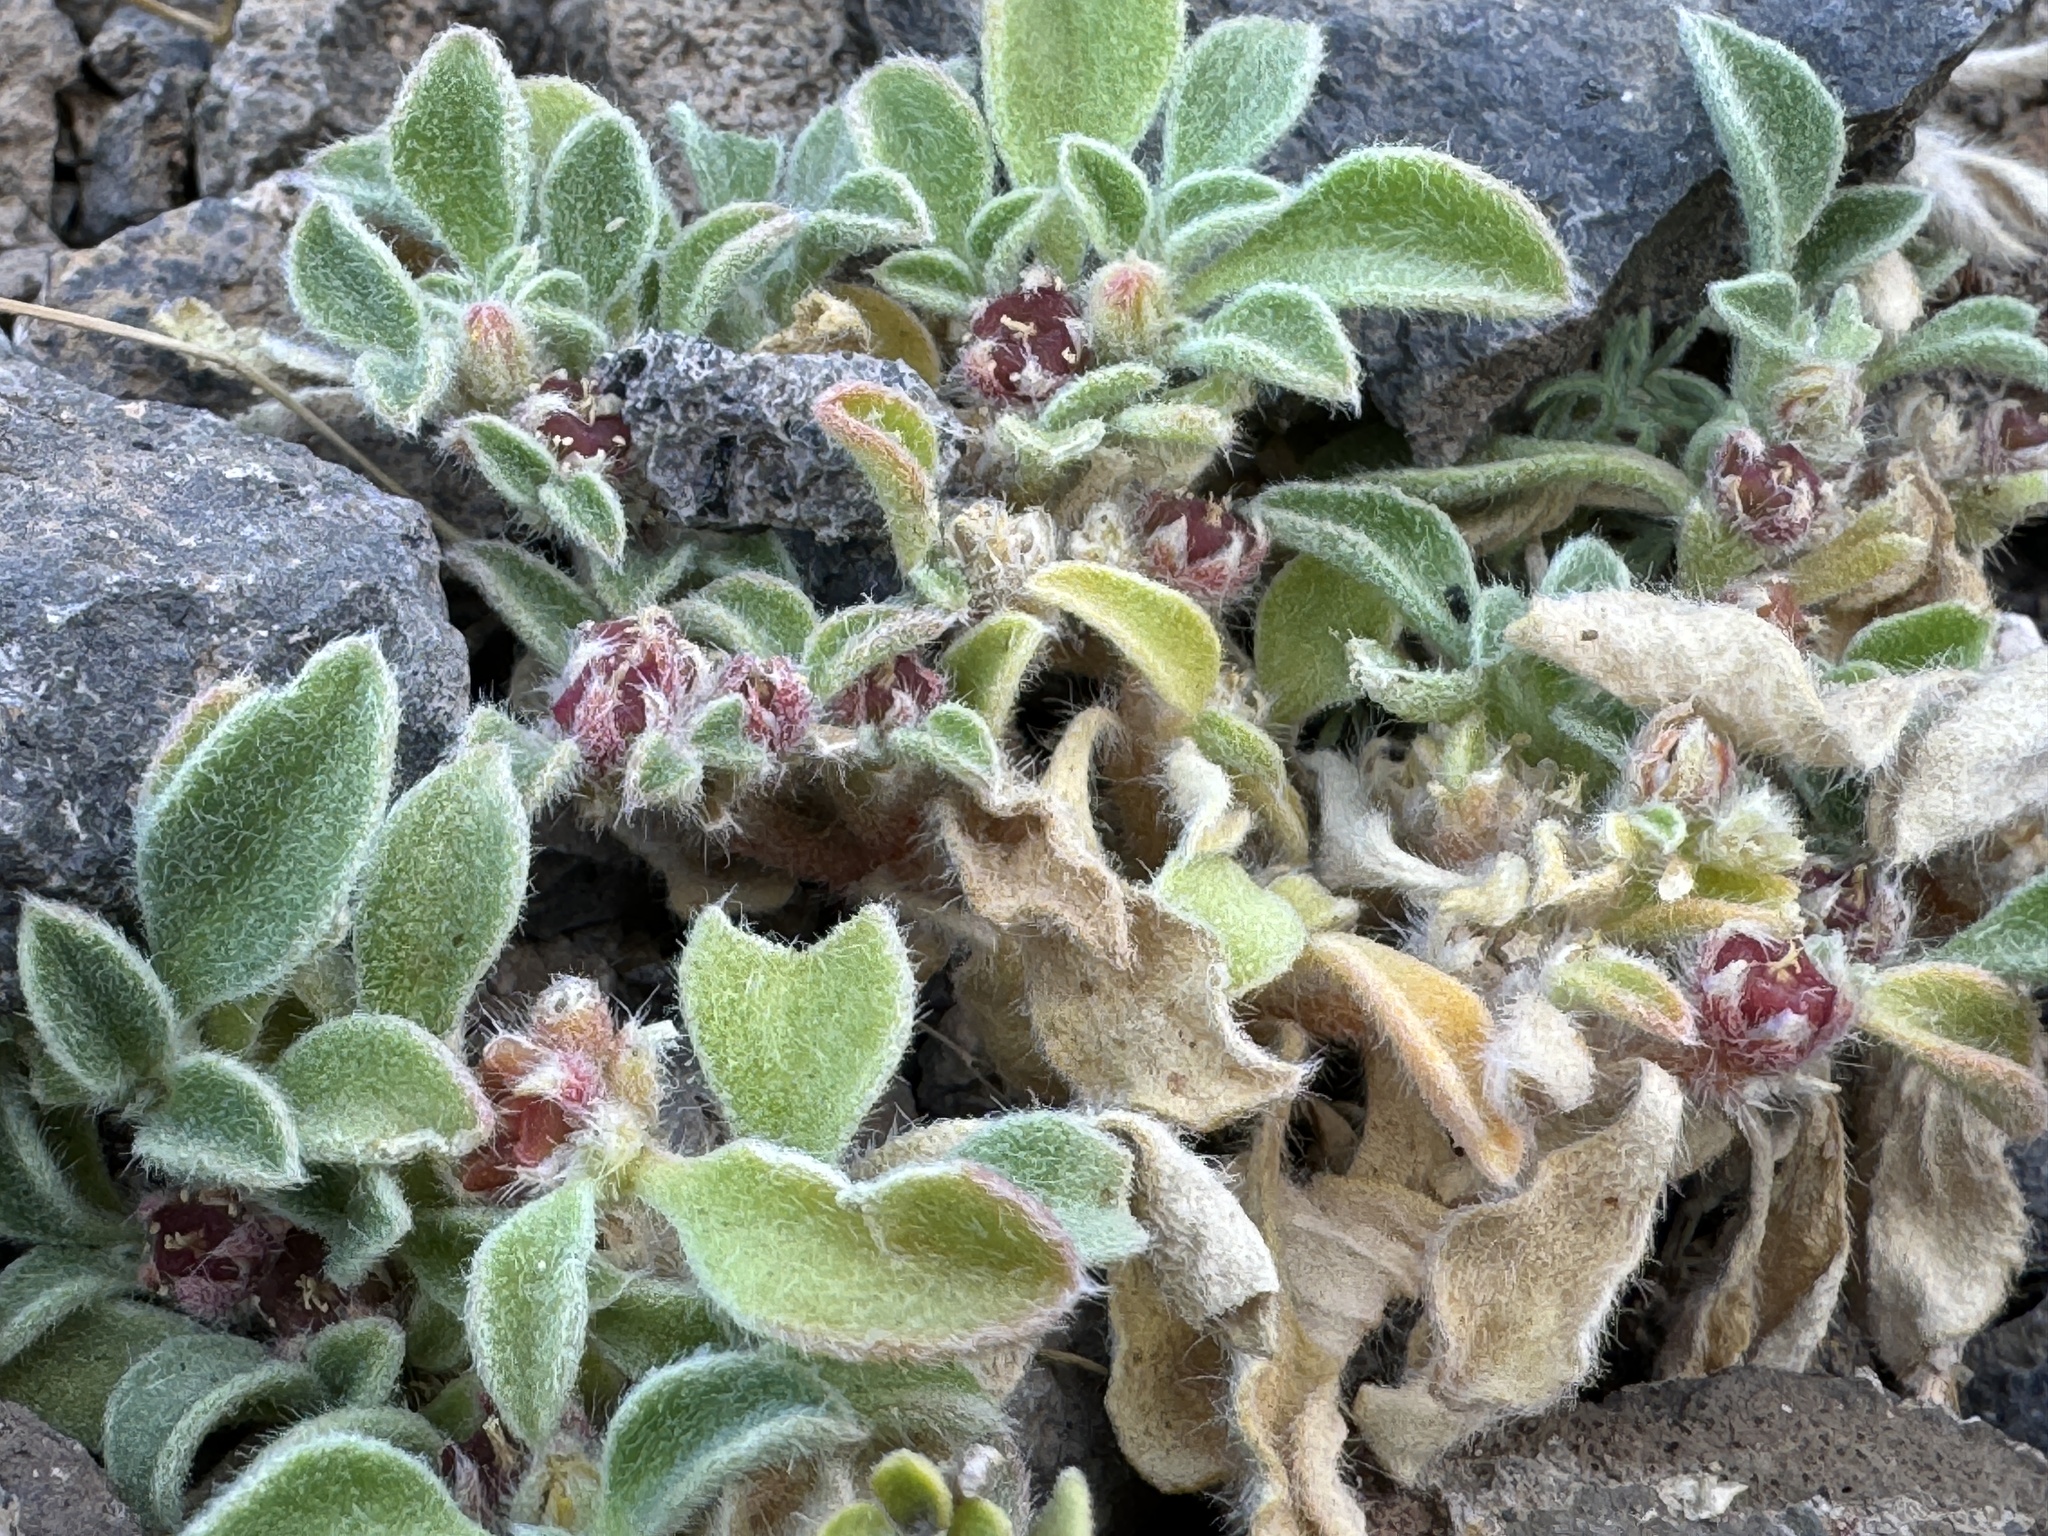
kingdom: Plantae
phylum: Tracheophyta
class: Magnoliopsida
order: Caryophyllales
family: Aizoaceae
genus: Aizoon
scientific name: Aizoon canariense
